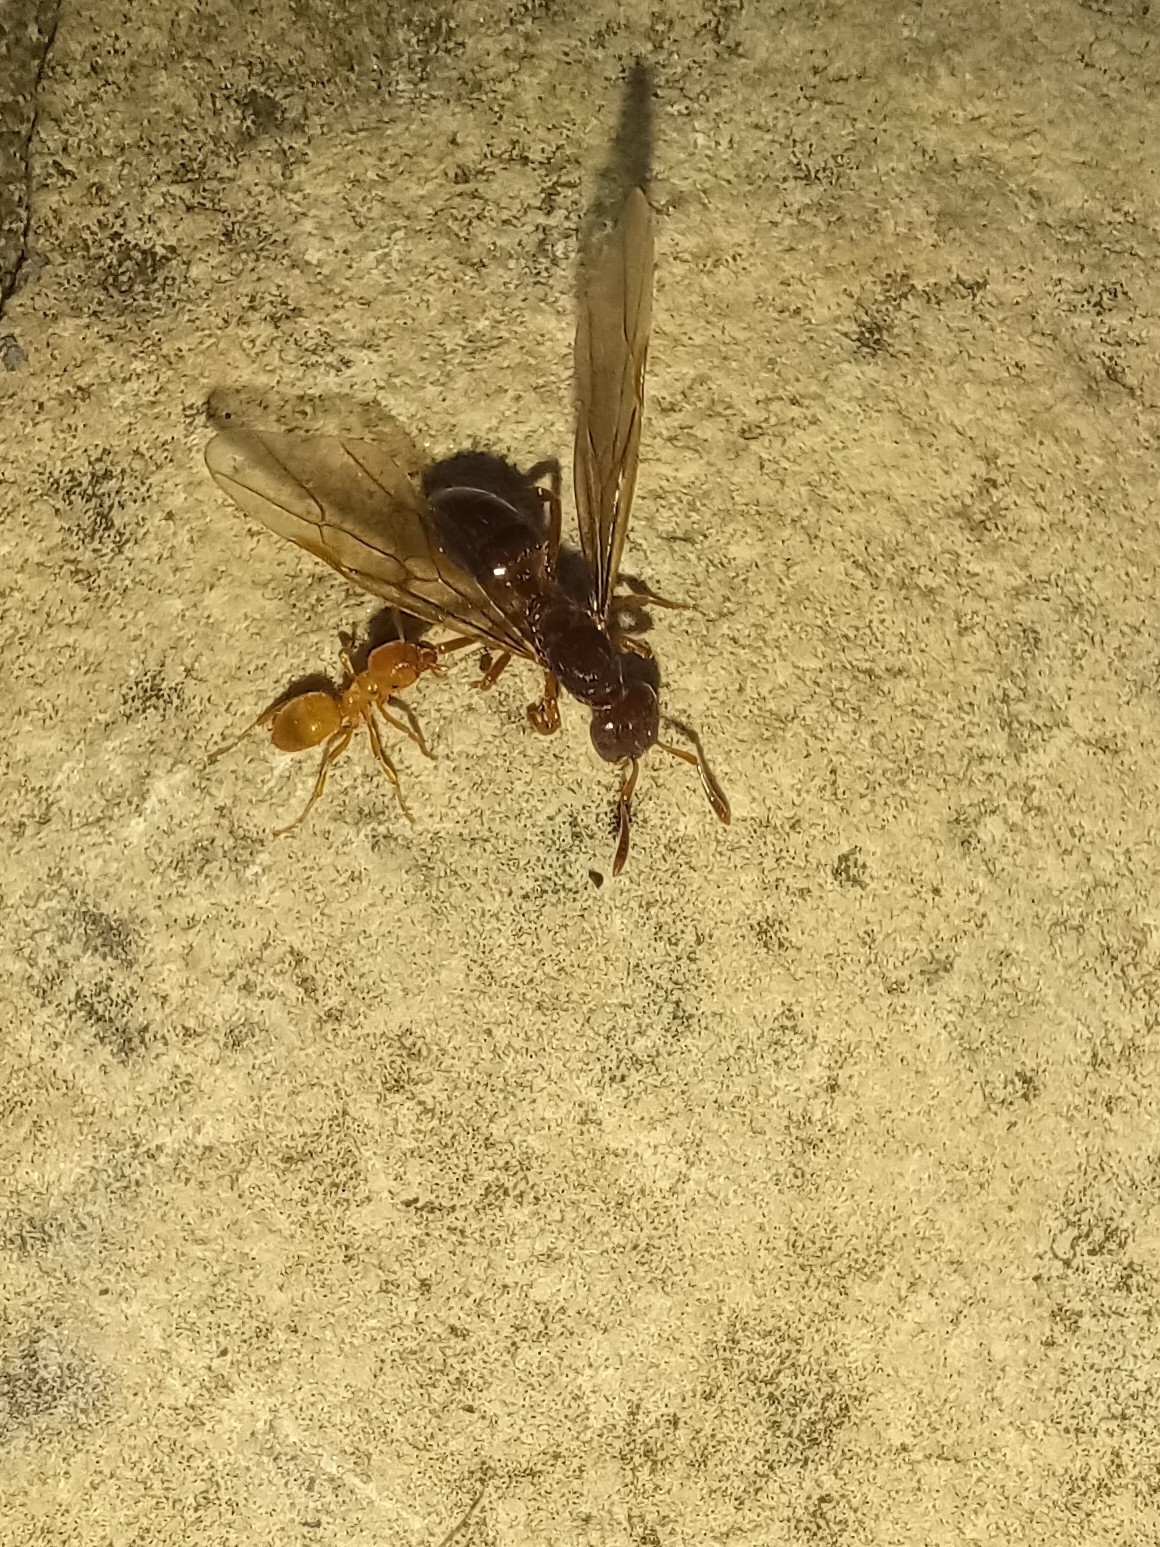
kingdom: Animalia
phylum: Arthropoda
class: Insecta
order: Hymenoptera
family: Formicidae
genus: Lasius
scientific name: Lasius claviger
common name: Common citronella ant
